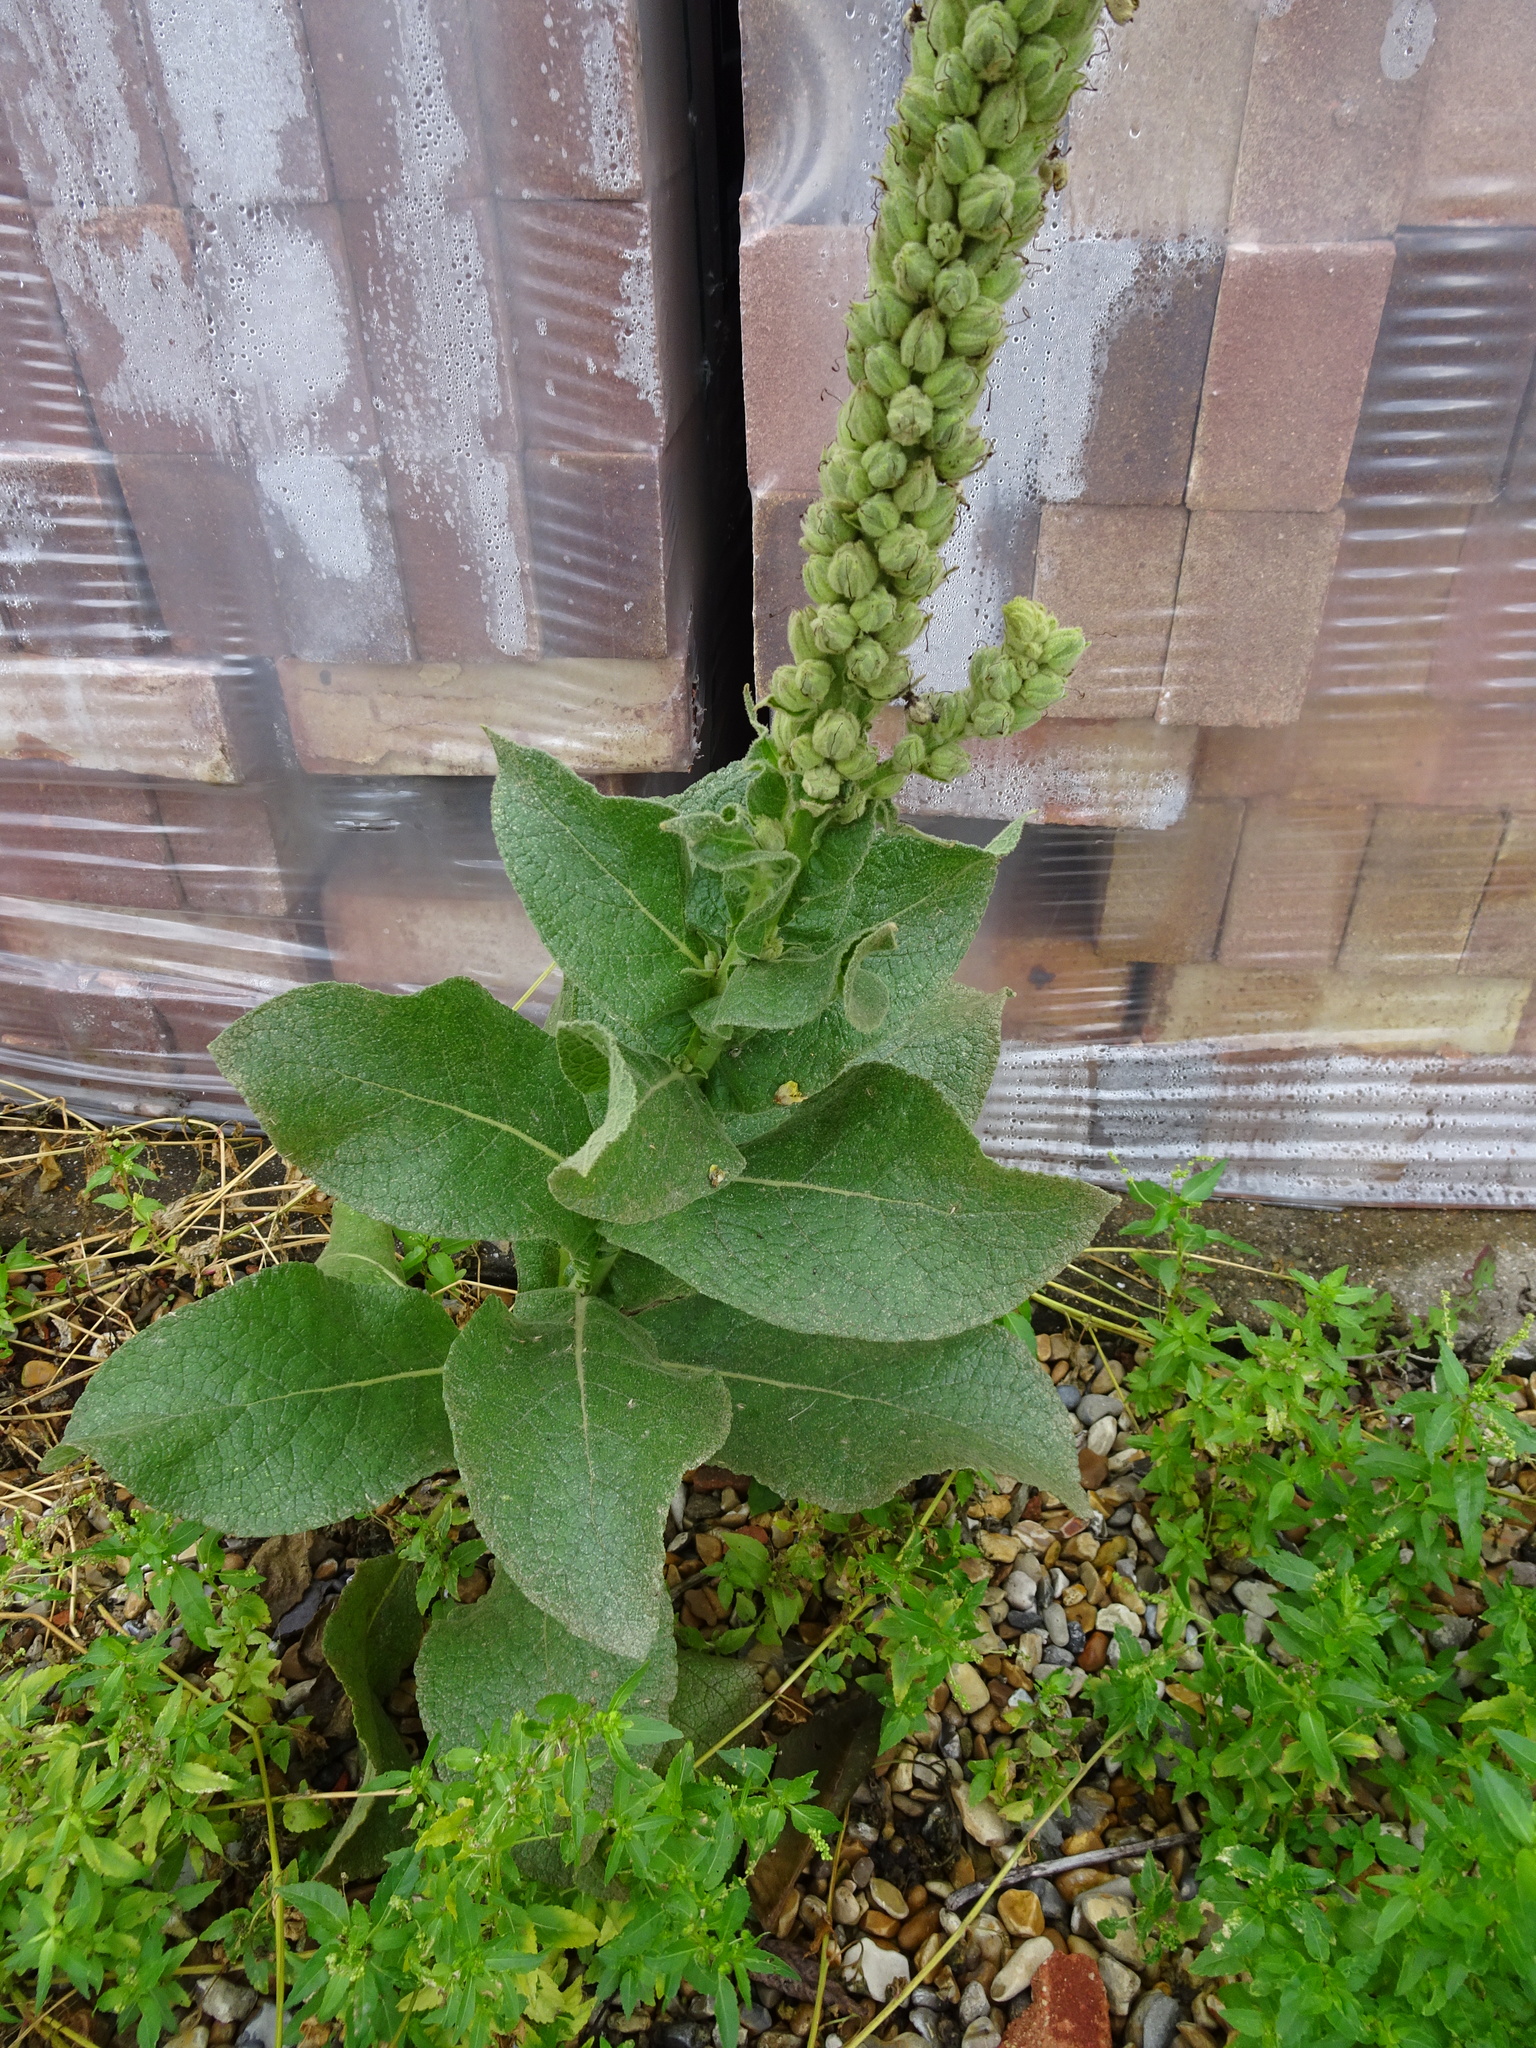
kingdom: Plantae
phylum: Tracheophyta
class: Magnoliopsida
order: Lamiales
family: Scrophulariaceae
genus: Verbascum
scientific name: Verbascum thapsus
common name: Common mullein
